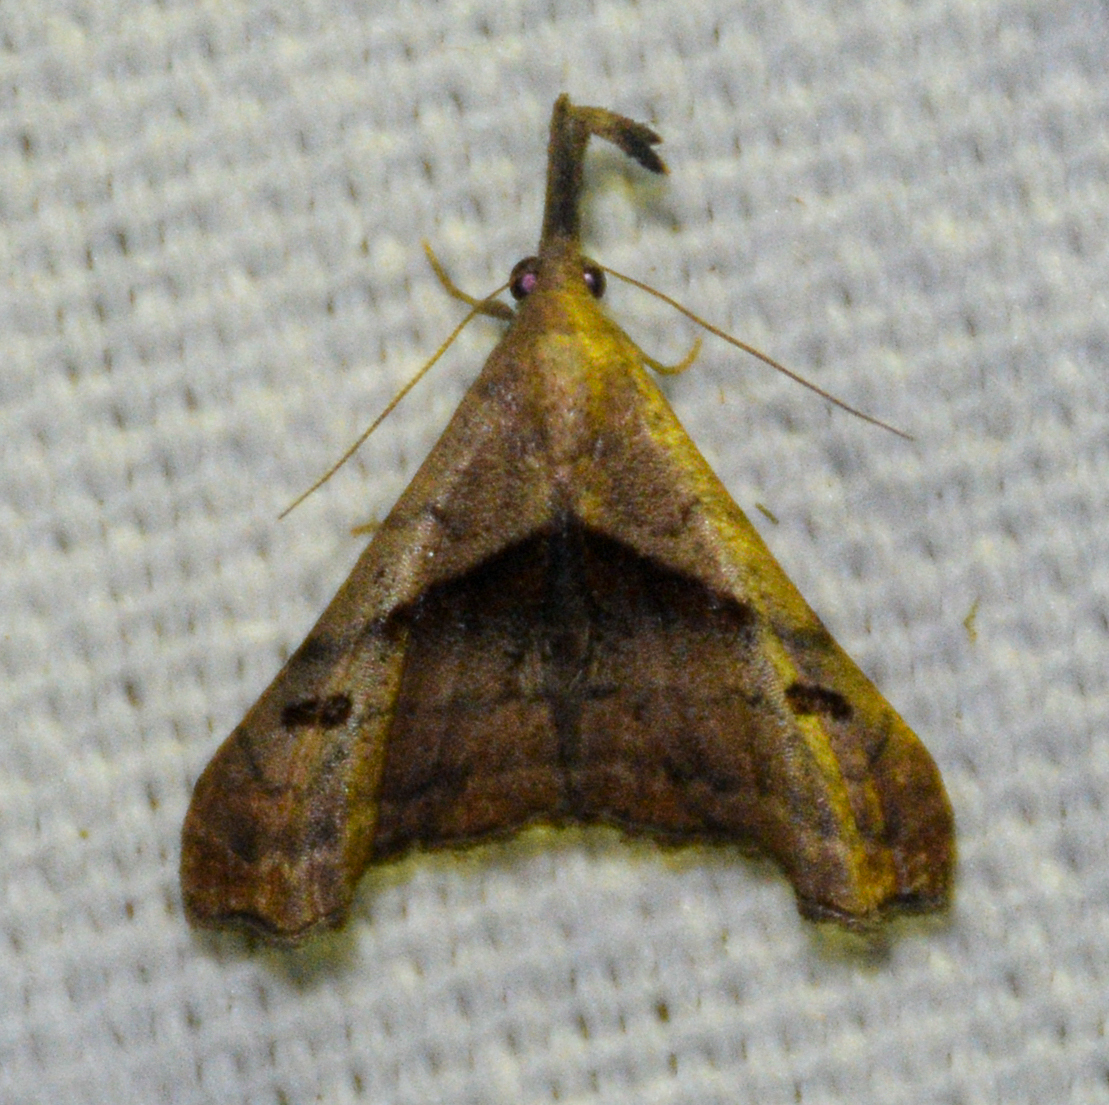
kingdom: Animalia
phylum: Arthropoda
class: Insecta
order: Lepidoptera
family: Erebidae
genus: Palthis
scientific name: Palthis angulalis
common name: Dark-spotted palthis moth
